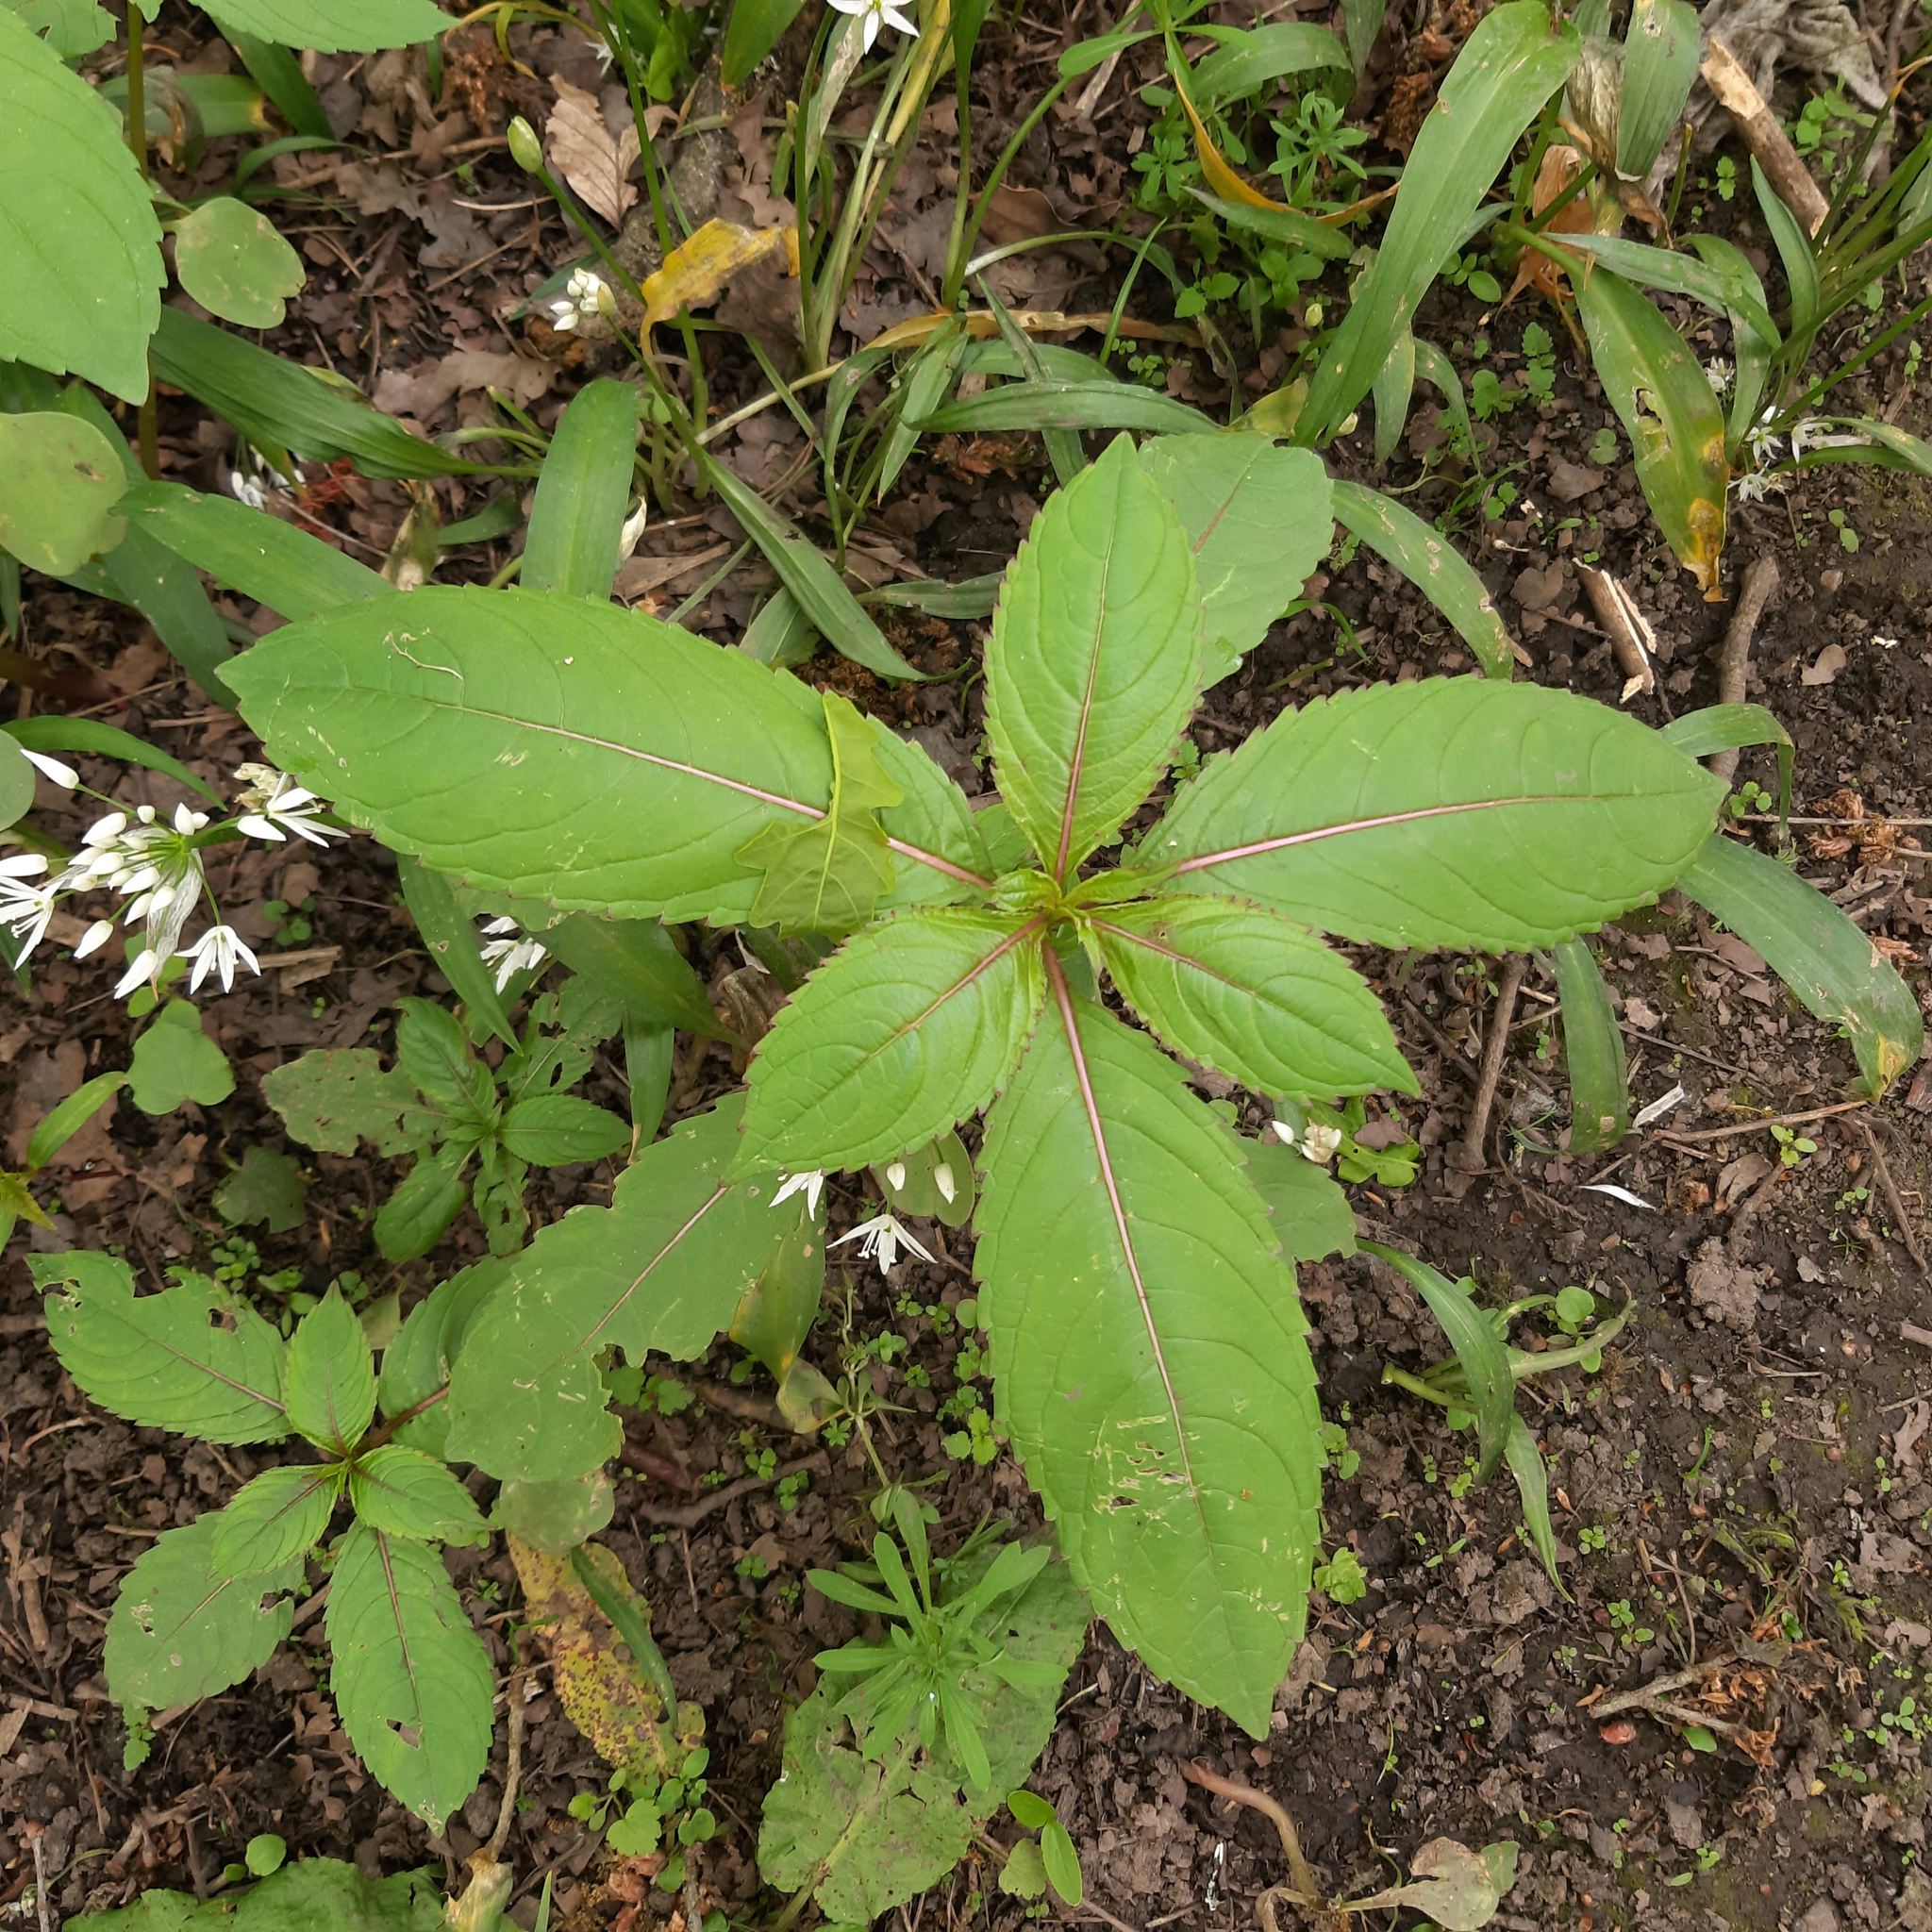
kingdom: Plantae
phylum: Tracheophyta
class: Magnoliopsida
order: Ericales
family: Balsaminaceae
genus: Impatiens
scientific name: Impatiens glandulifera
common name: Himalayan balsam
